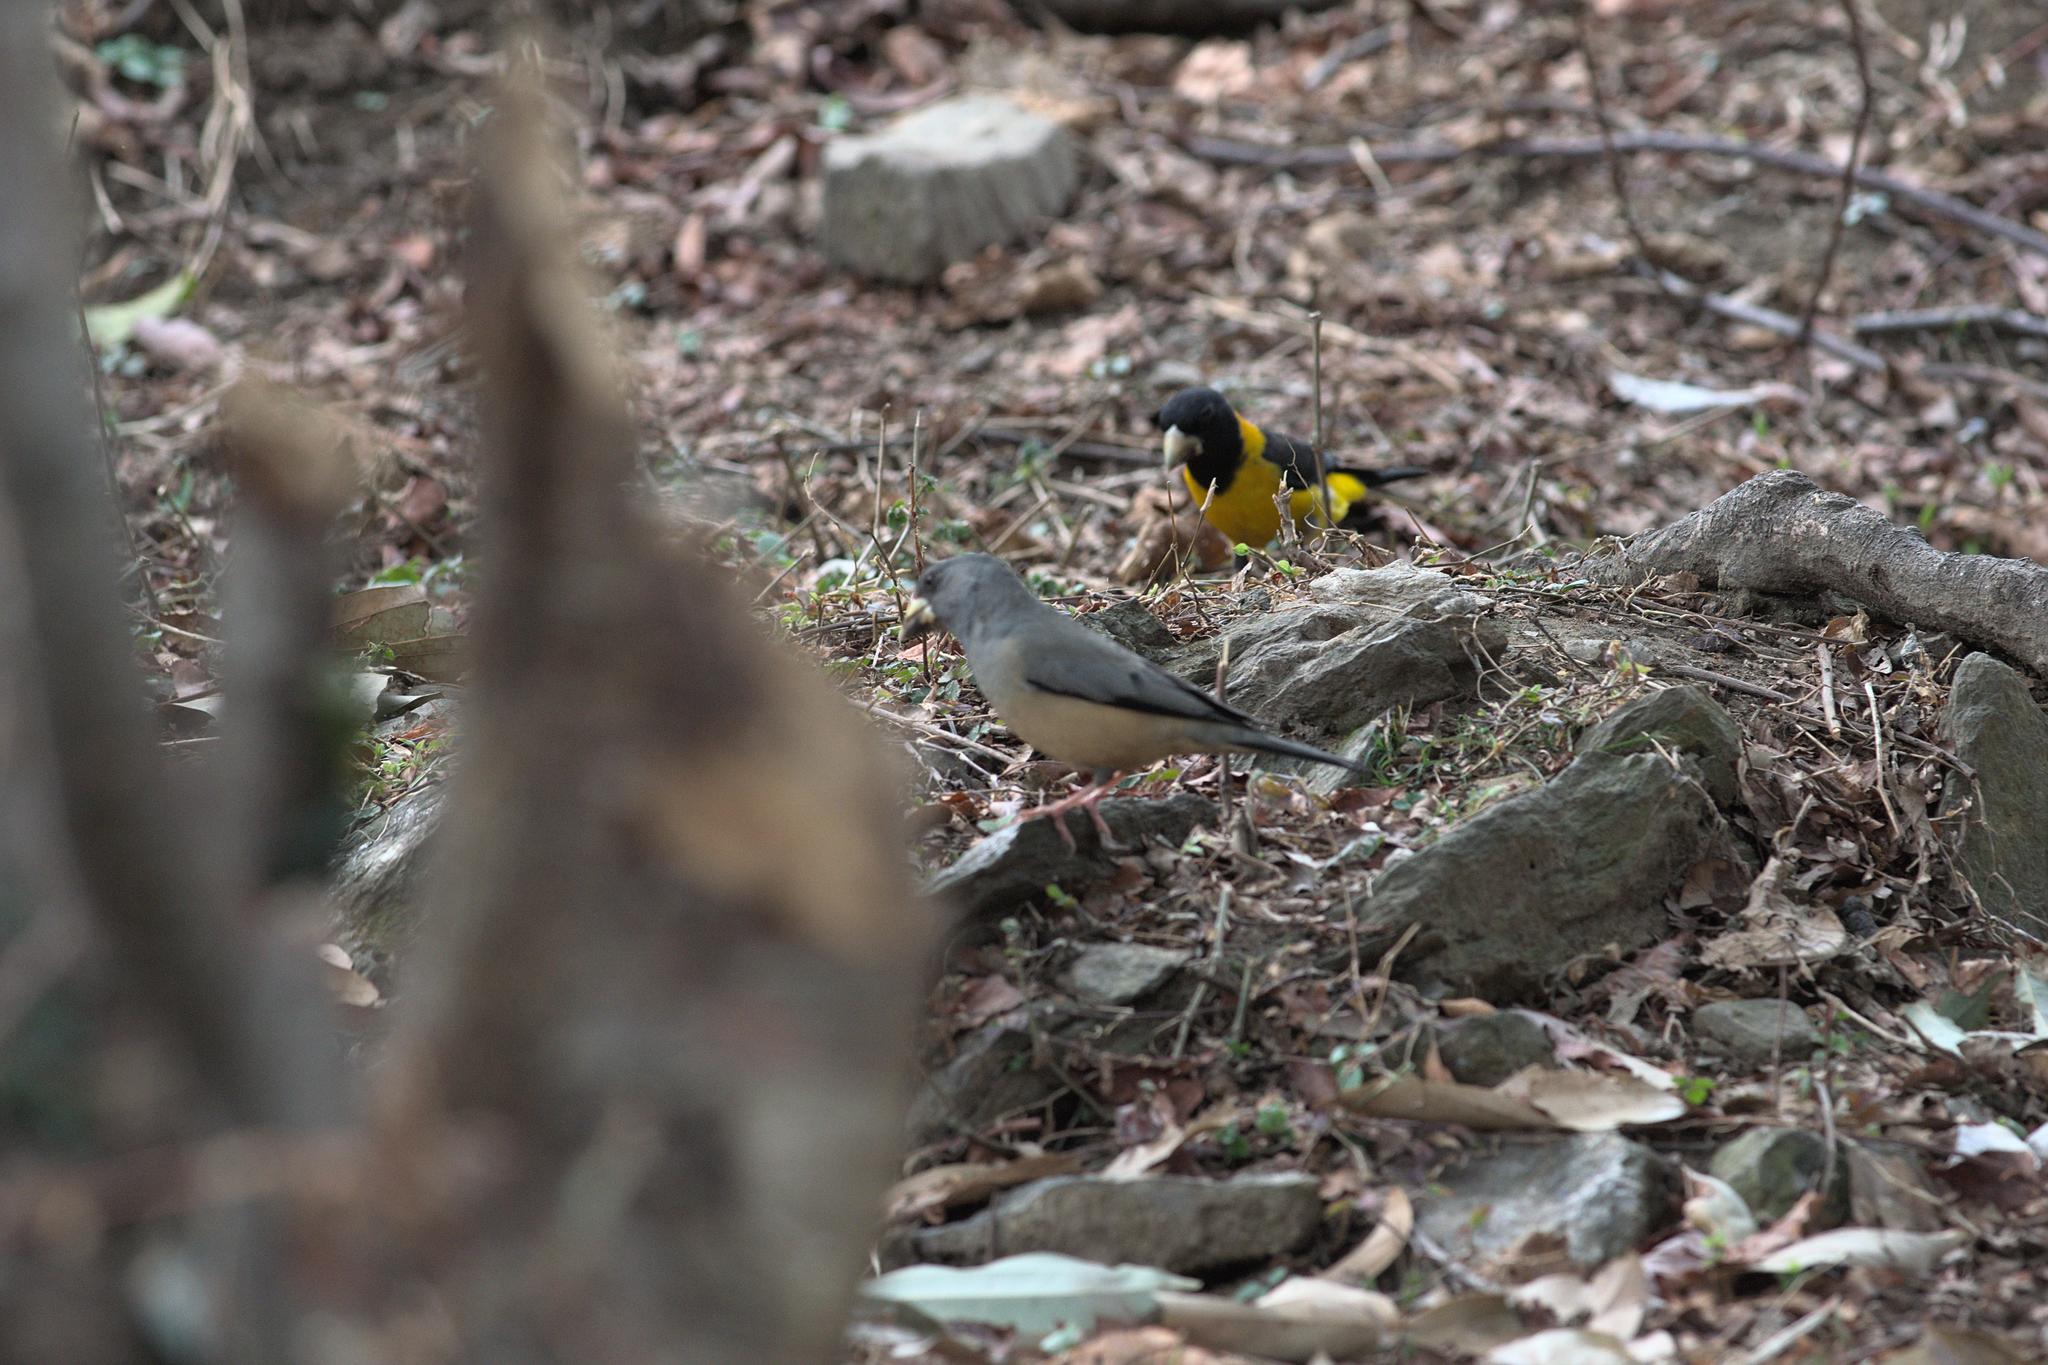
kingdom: Animalia
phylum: Chordata
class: Aves
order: Passeriformes
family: Fringillidae
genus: Mycerobas
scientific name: Mycerobas icterioides
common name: Black-and-yellow grosbeak
